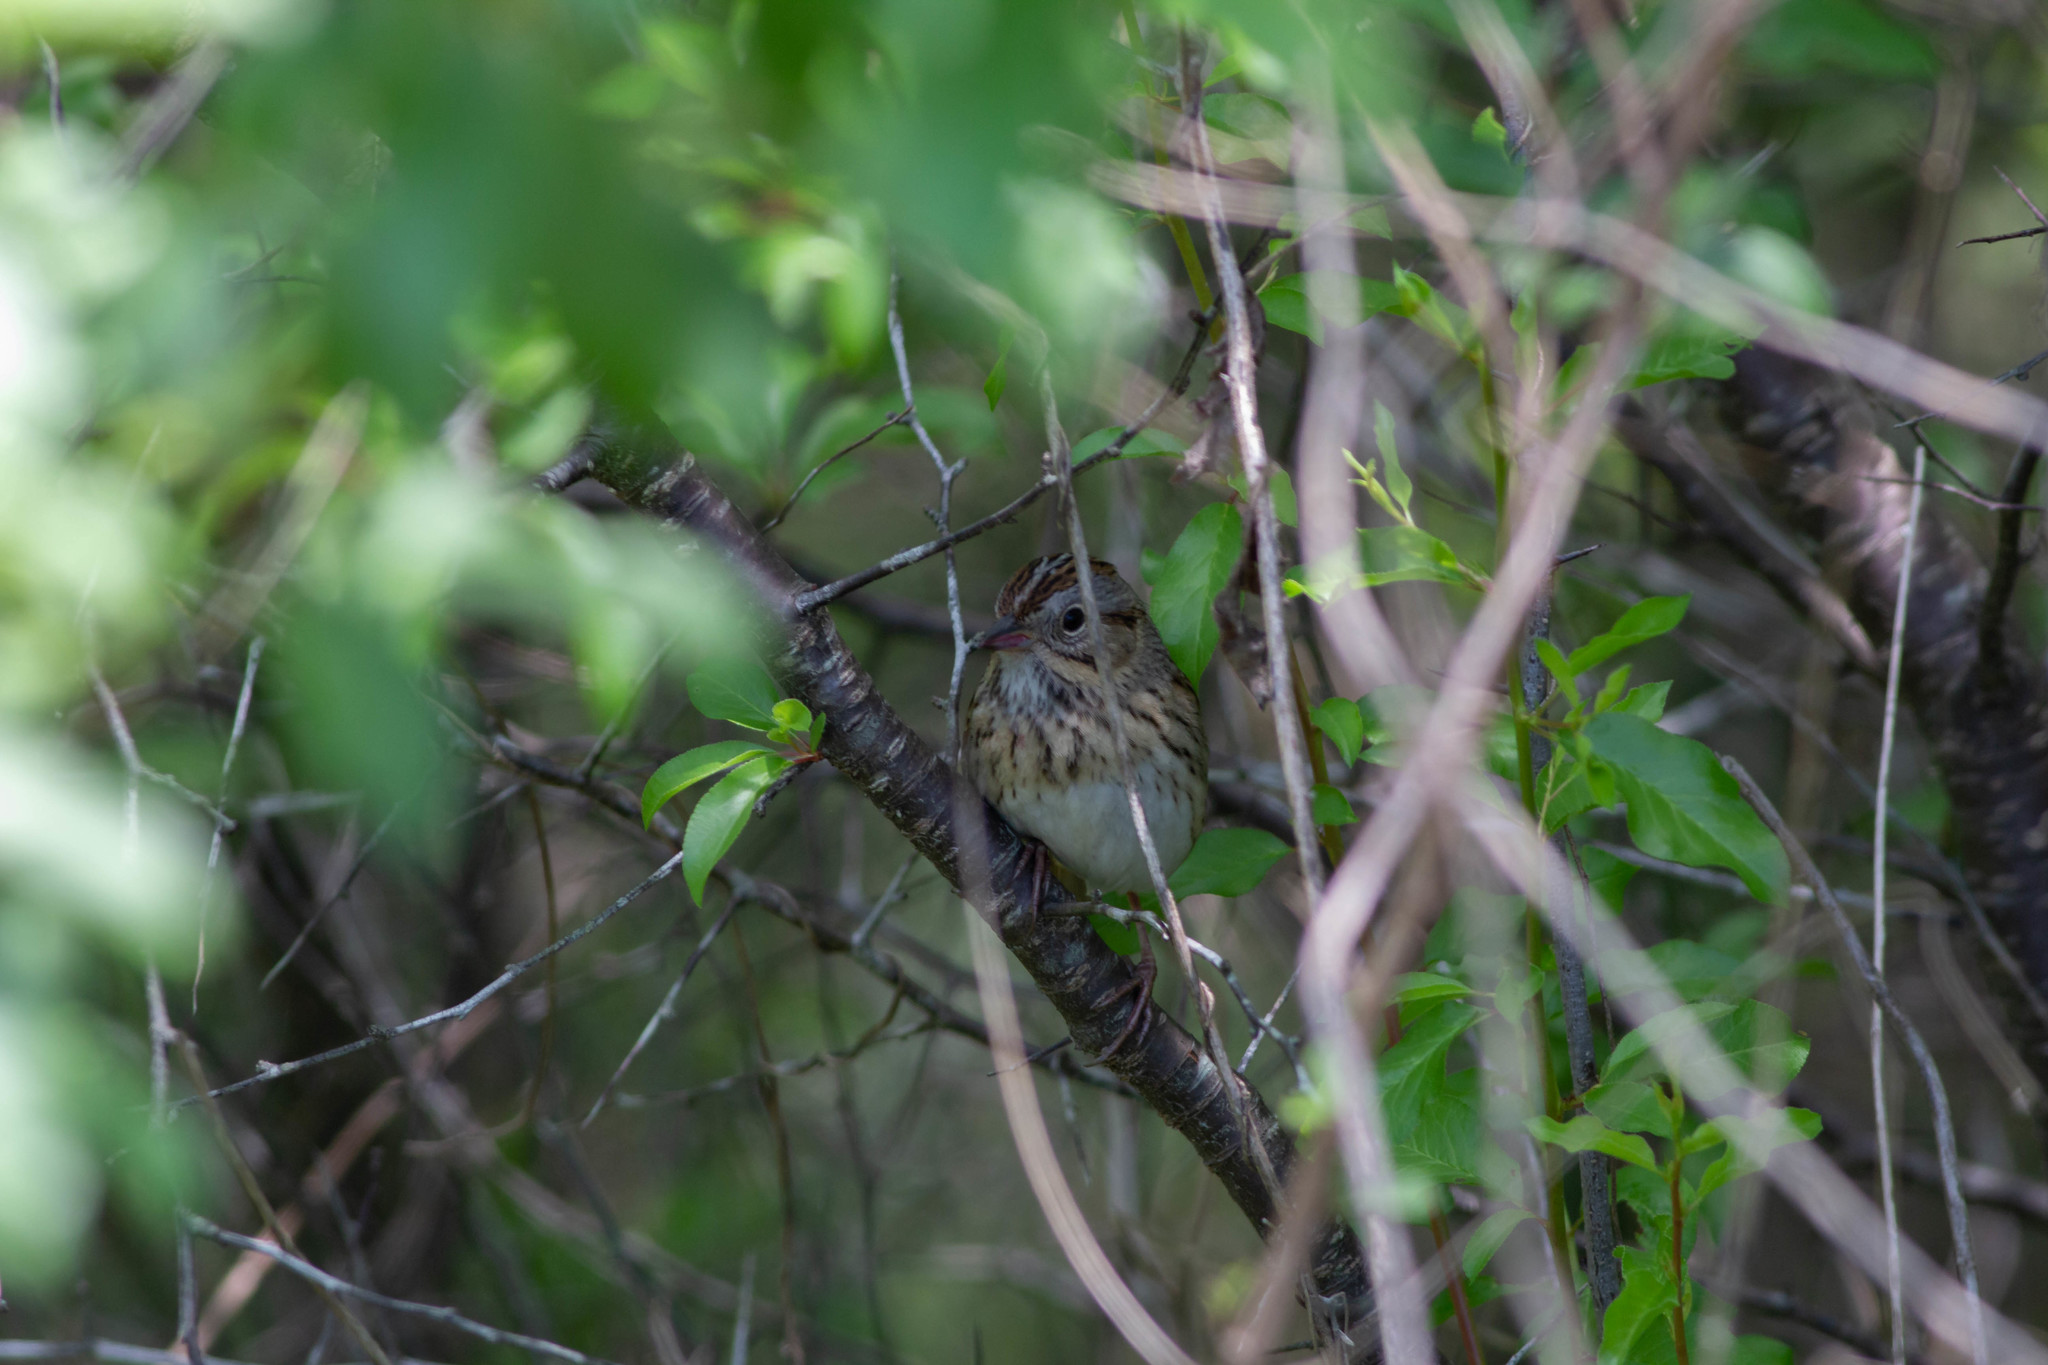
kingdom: Animalia
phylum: Chordata
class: Aves
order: Passeriformes
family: Passerellidae
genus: Melospiza
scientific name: Melospiza lincolnii
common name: Lincoln's sparrow
